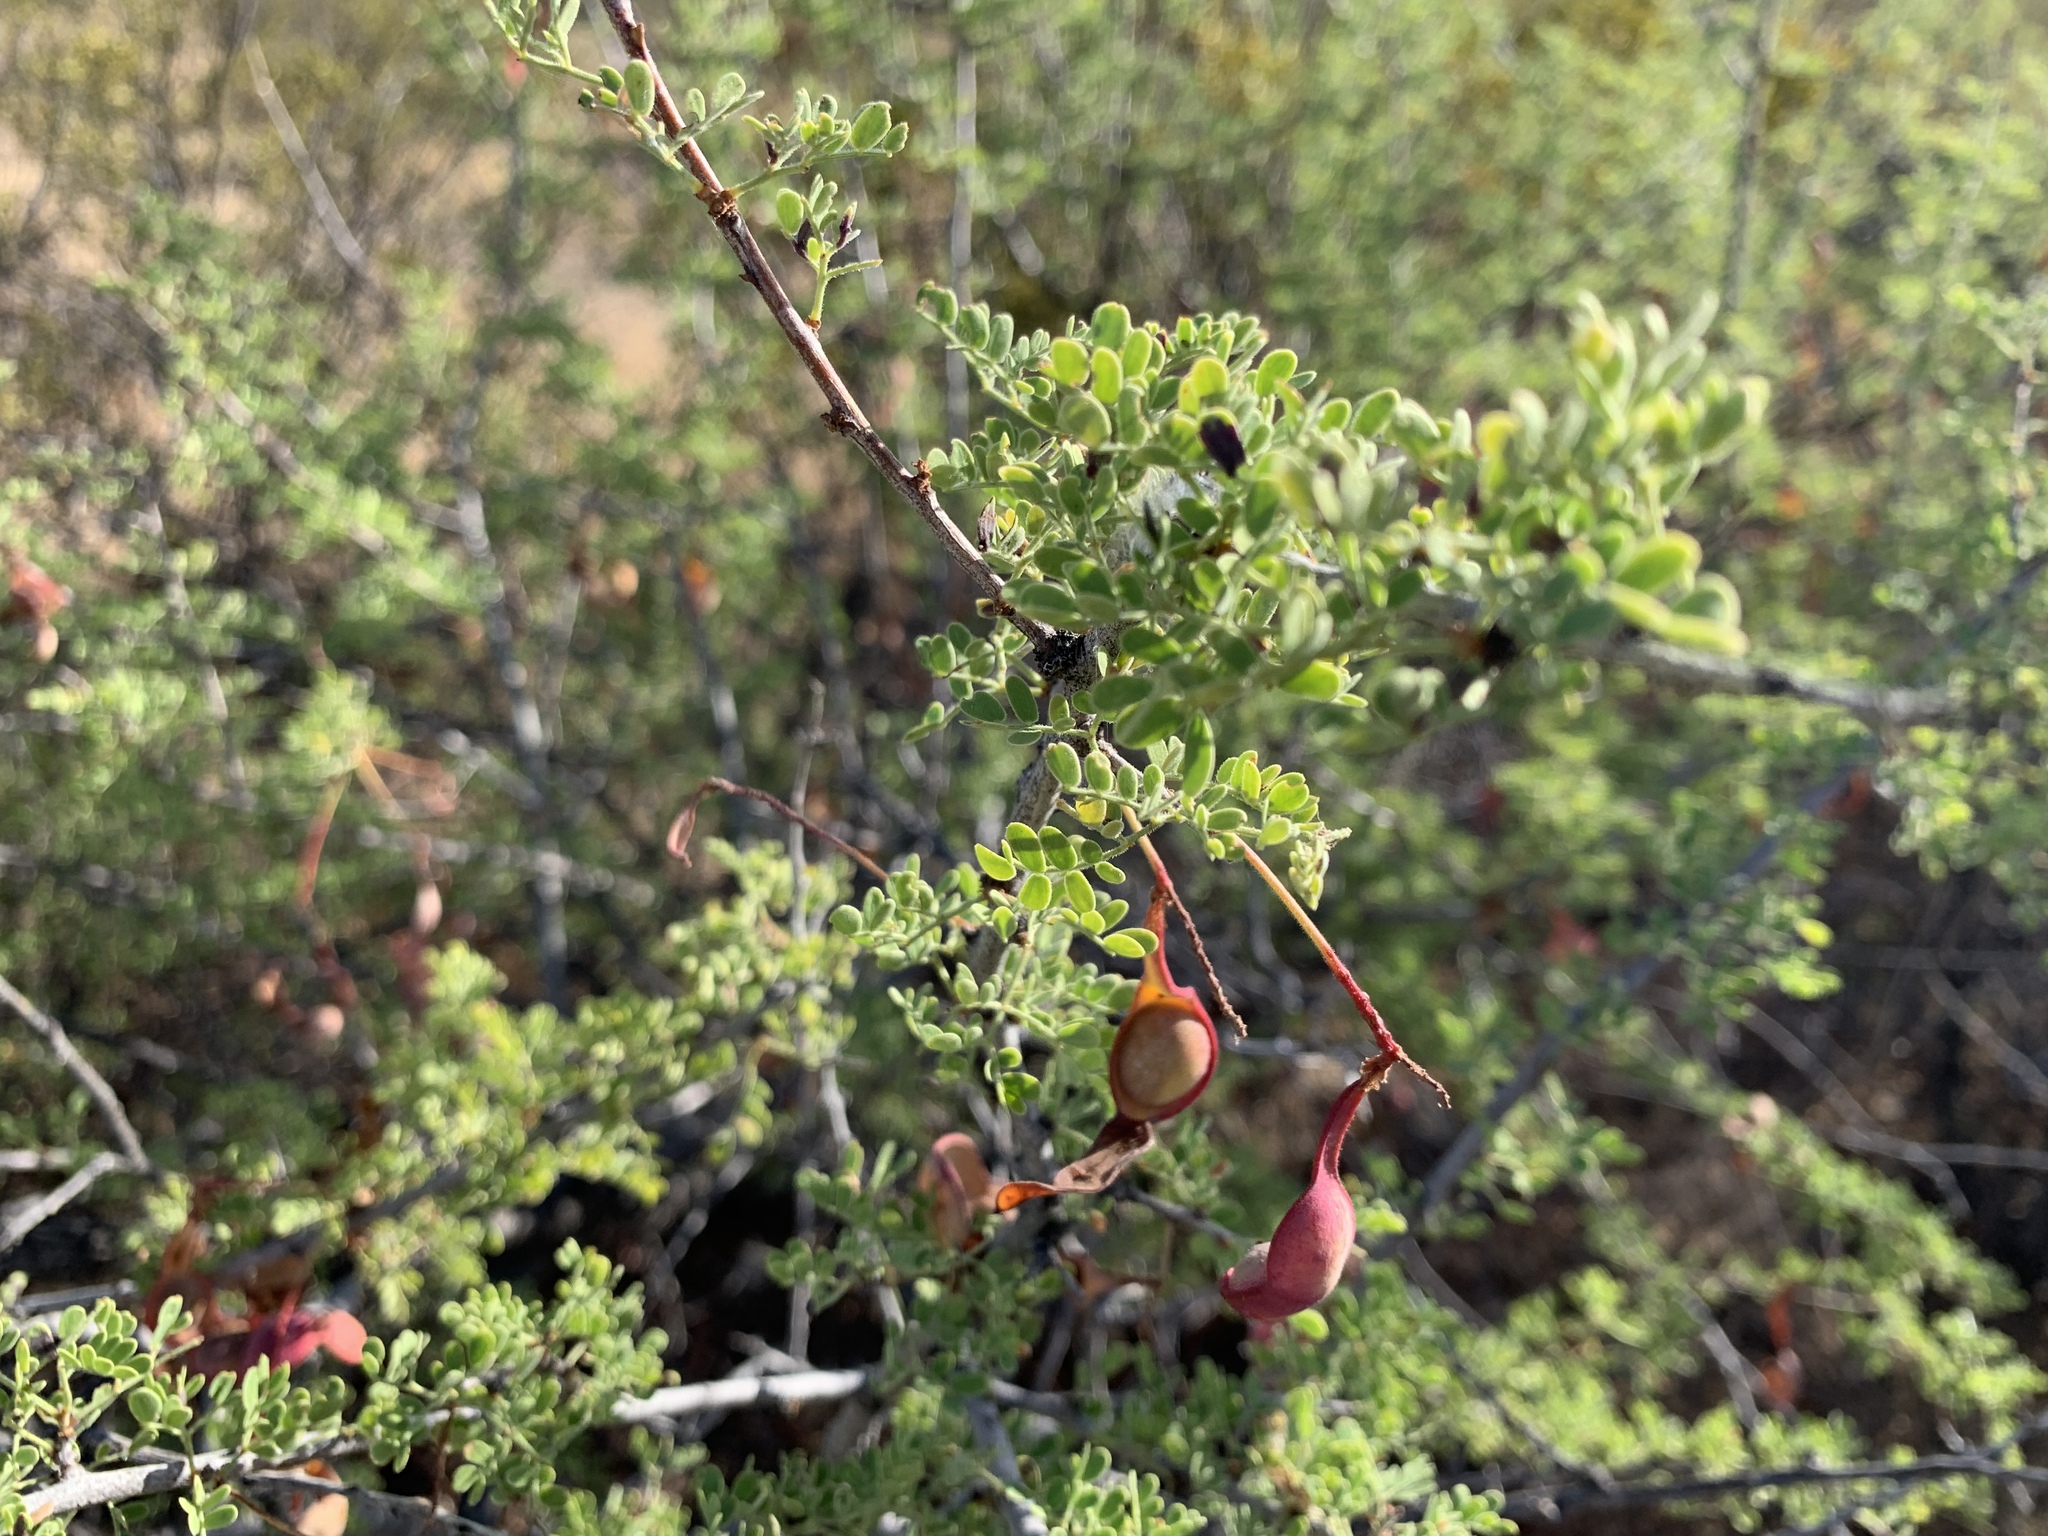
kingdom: Plantae
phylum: Tracheophyta
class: Magnoliopsida
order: Fabales
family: Fabaceae
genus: Senegalia
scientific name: Senegalia greggii
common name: Texas-mimosa
